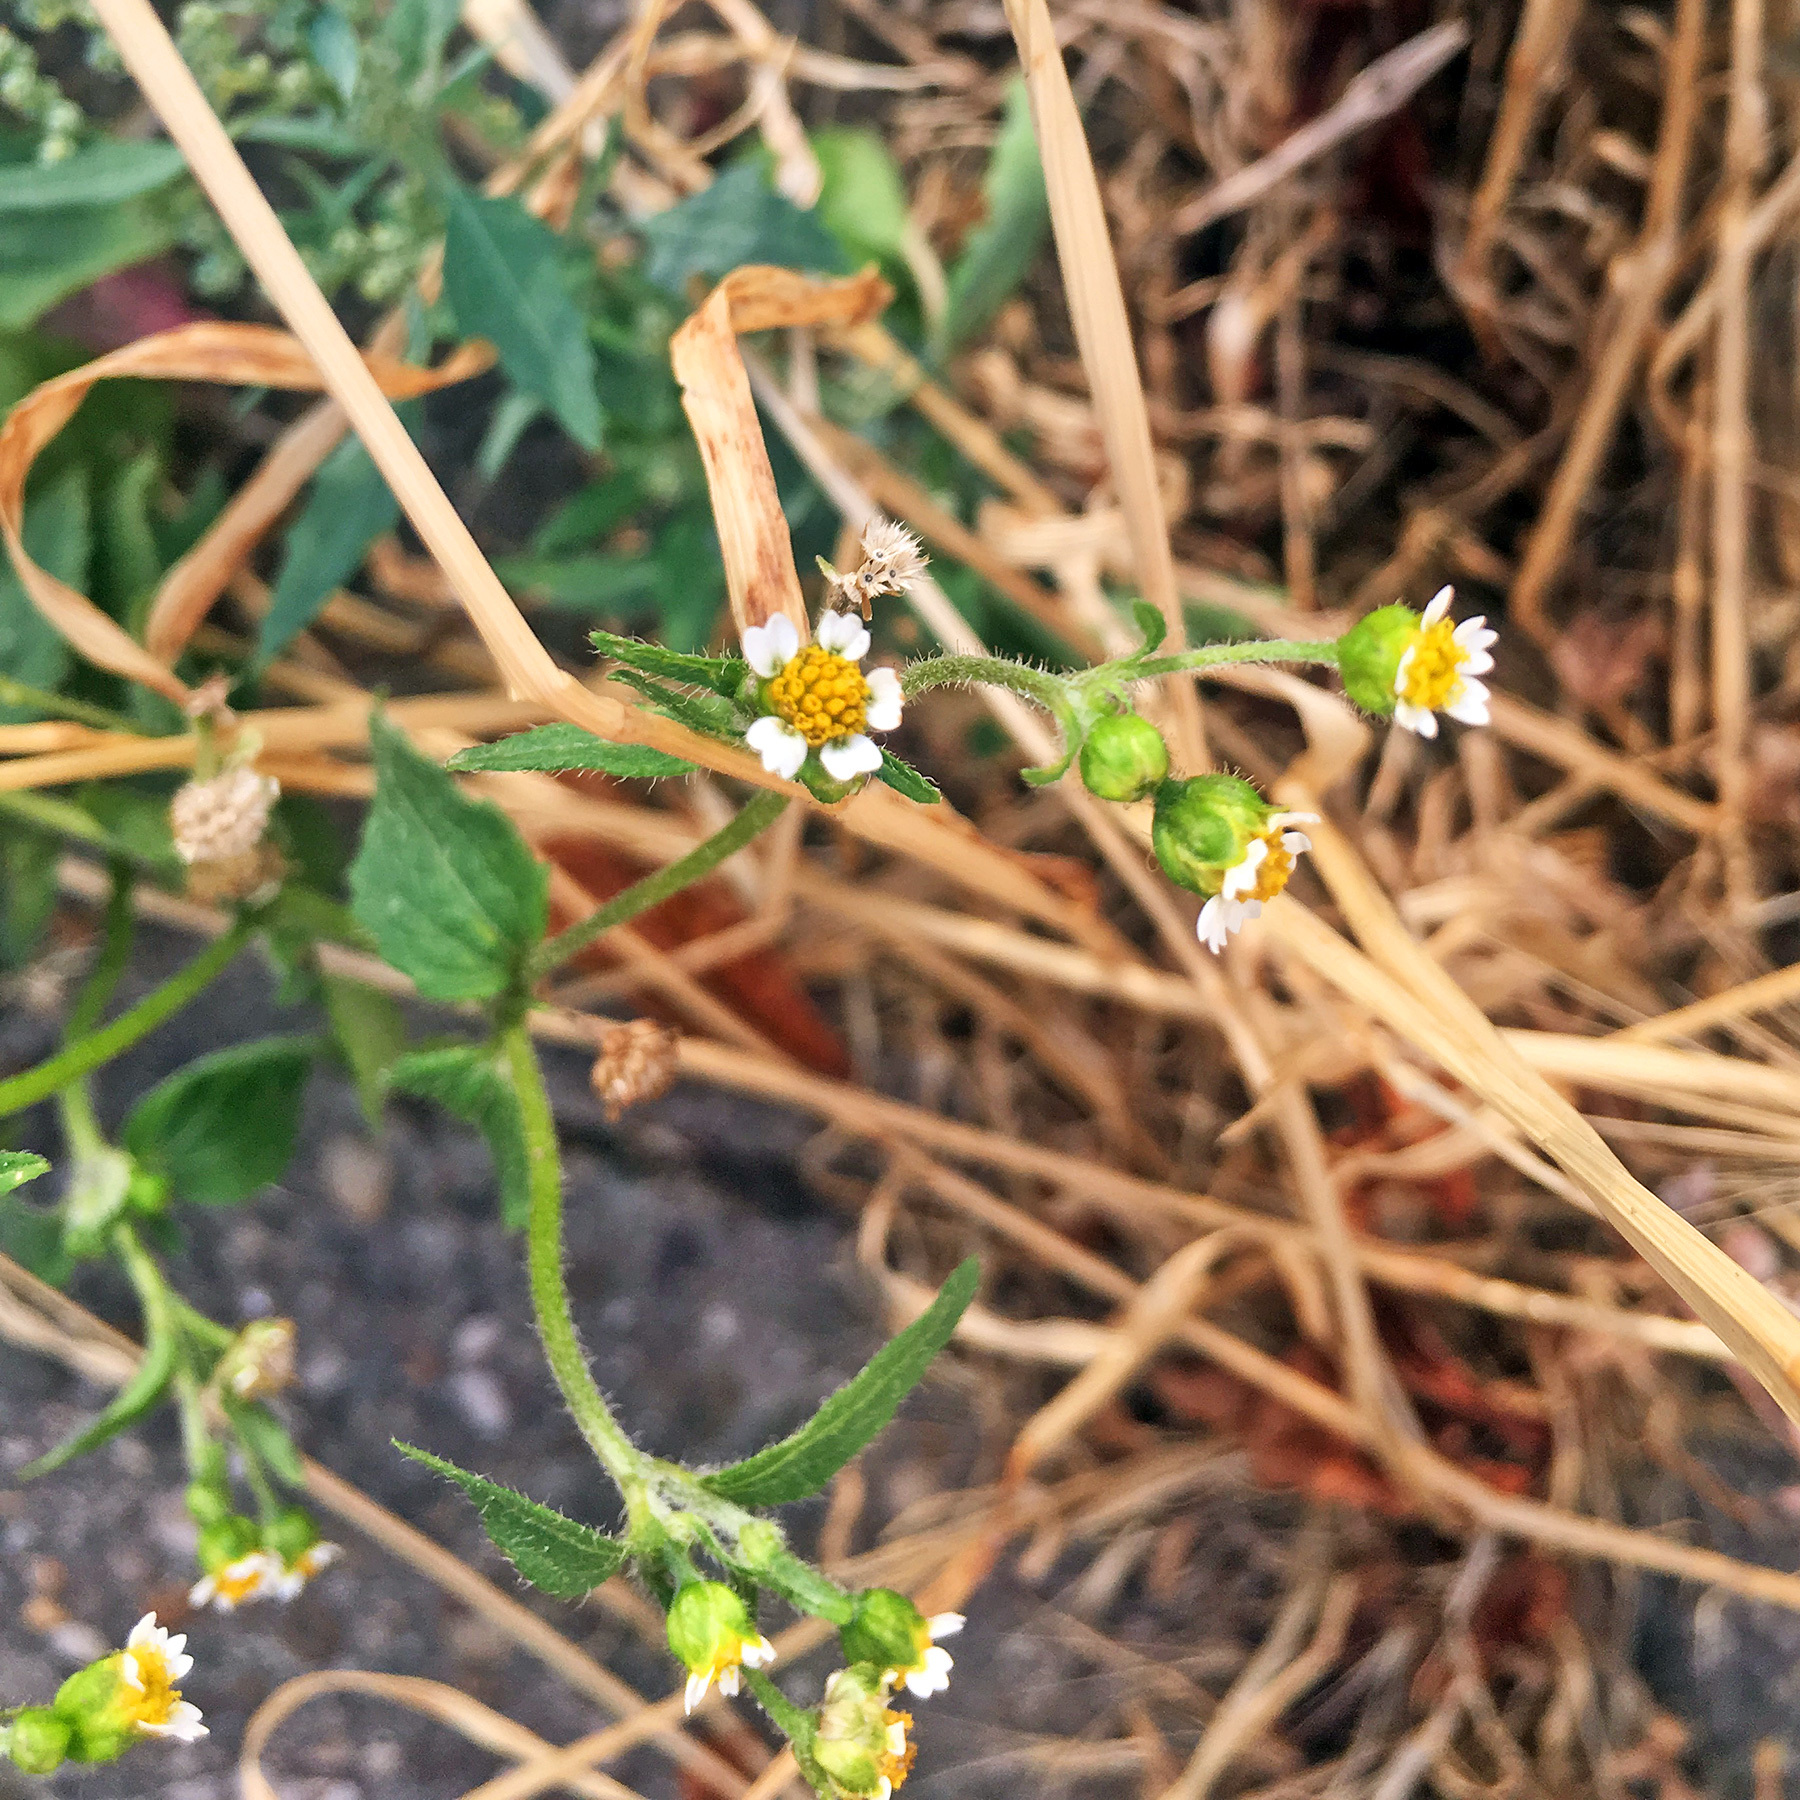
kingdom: Plantae
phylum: Tracheophyta
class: Magnoliopsida
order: Asterales
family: Asteraceae
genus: Galinsoga
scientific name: Galinsoga quadriradiata
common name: Shaggy soldier
